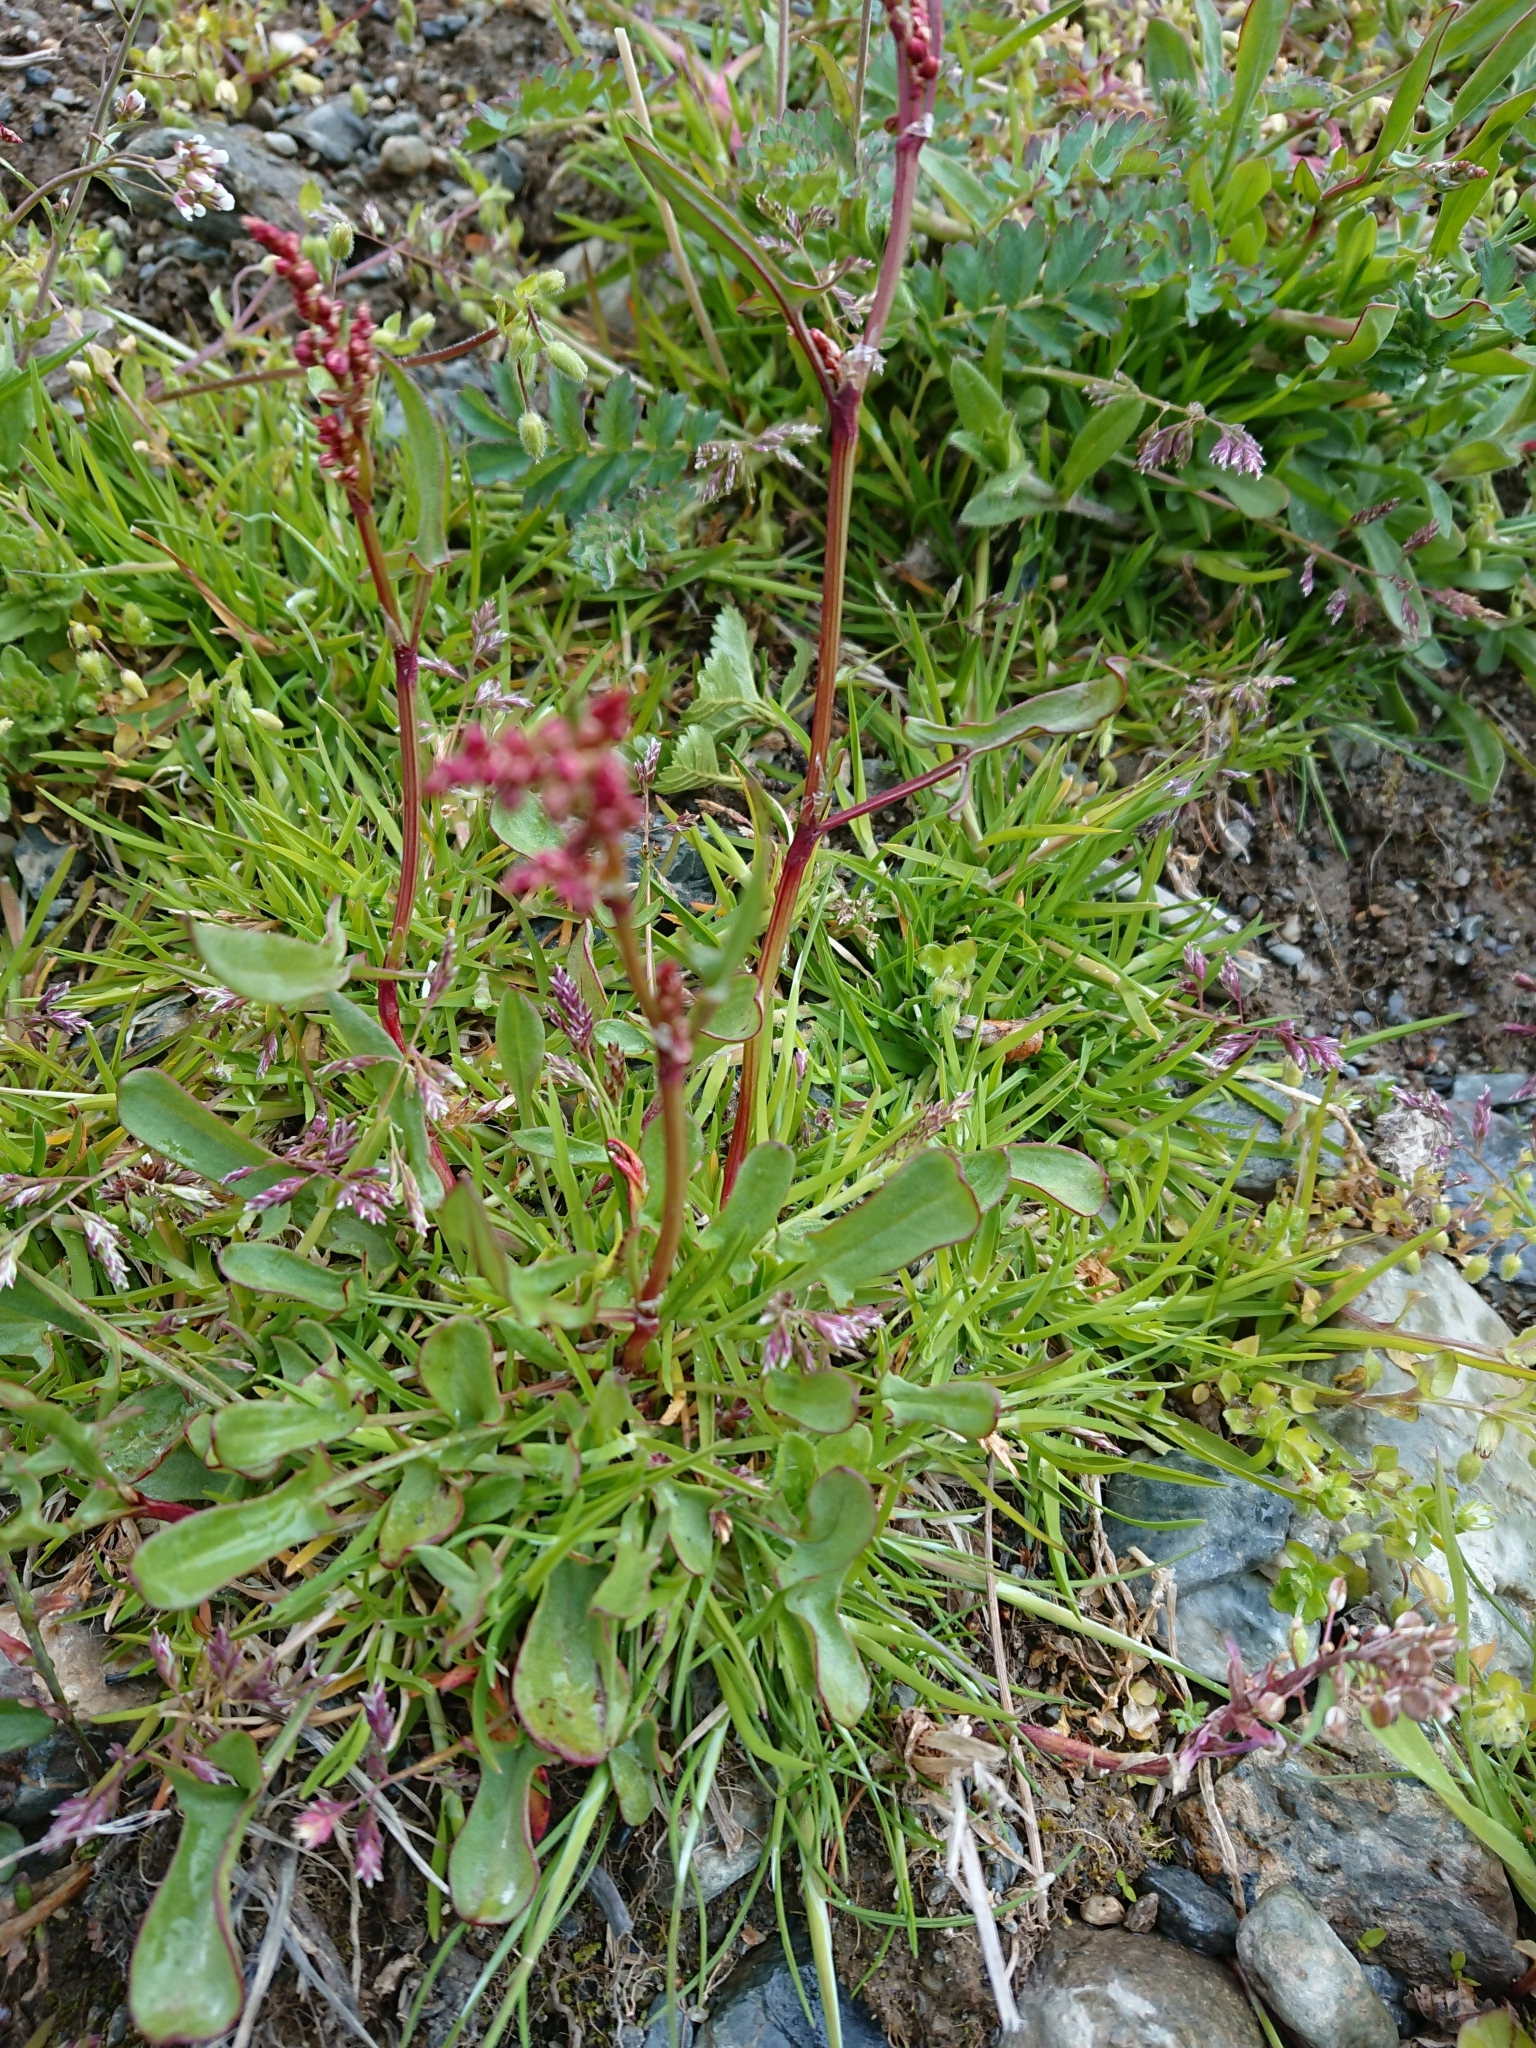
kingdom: Plantae
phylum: Tracheophyta
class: Magnoliopsida
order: Caryophyllales
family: Polygonaceae
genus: Rumex
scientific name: Rumex acetosella
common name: Common sheep sorrel
